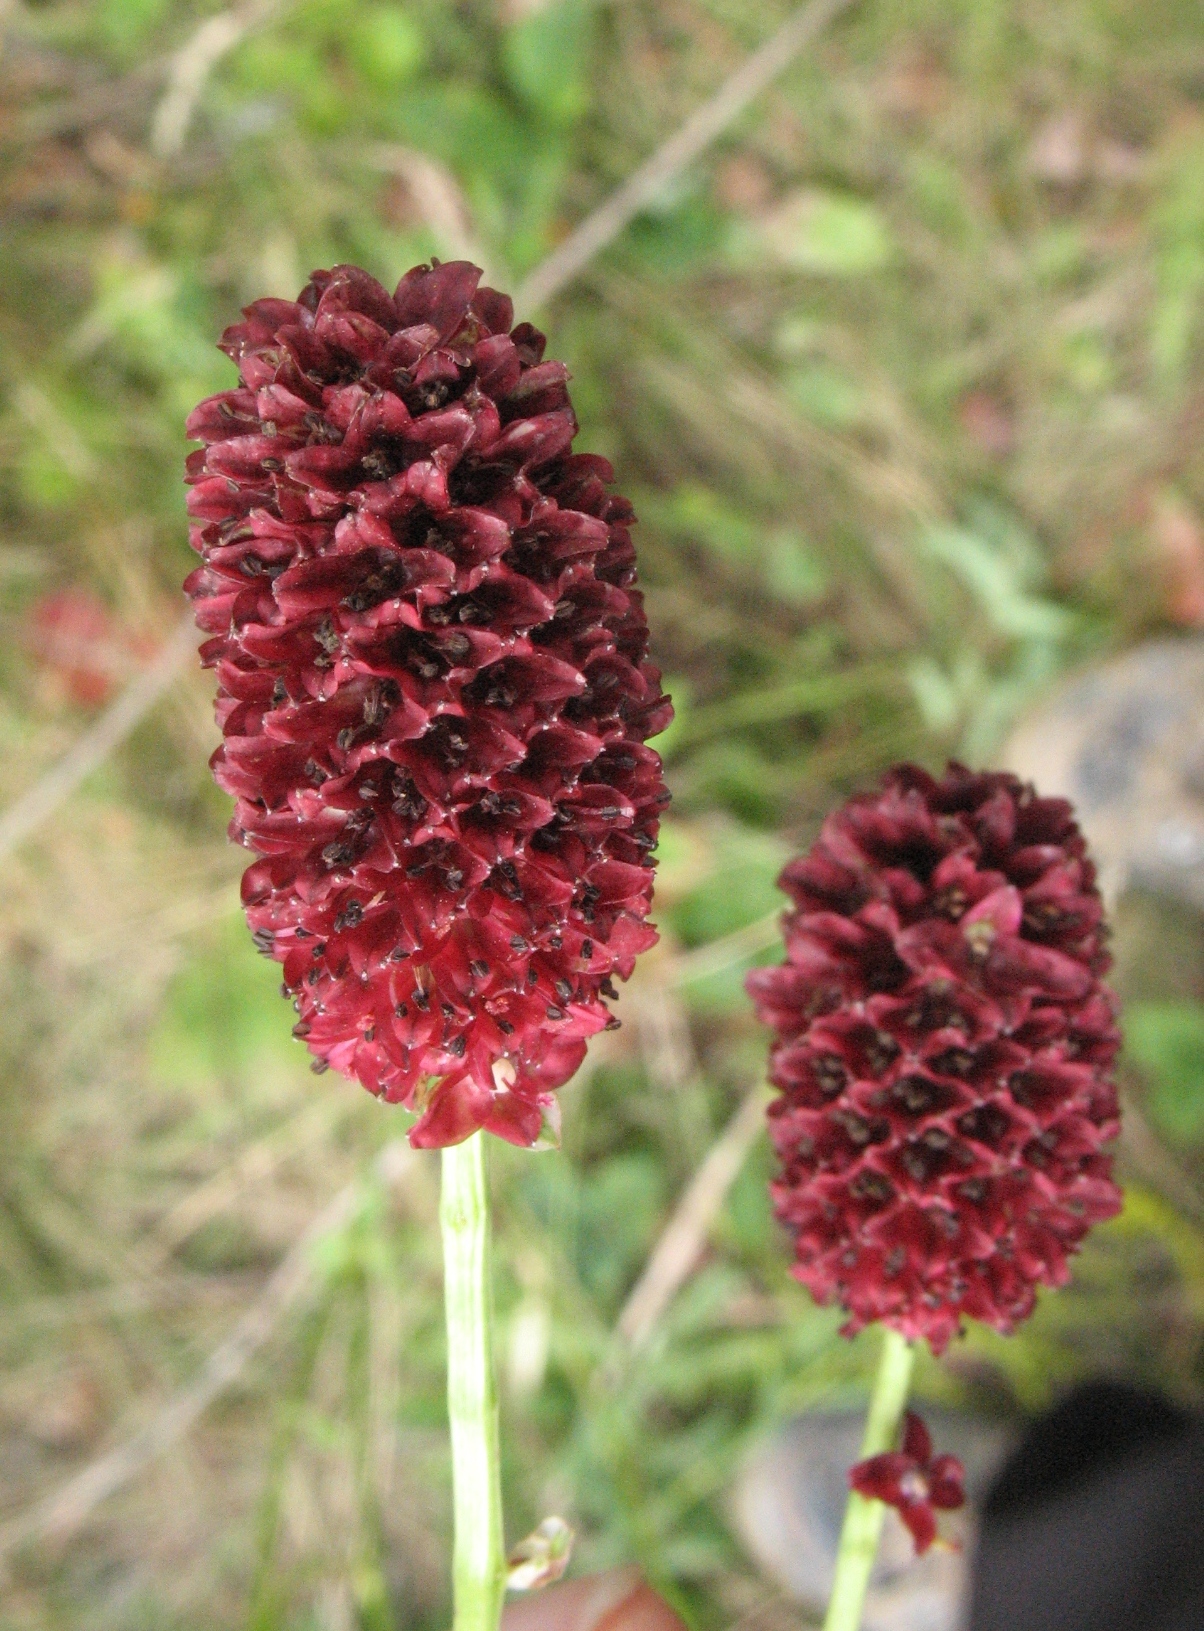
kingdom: Plantae
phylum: Tracheophyta
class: Magnoliopsida
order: Rosales
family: Rosaceae
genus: Sanguisorba
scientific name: Sanguisorba officinalis
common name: Great burnet
